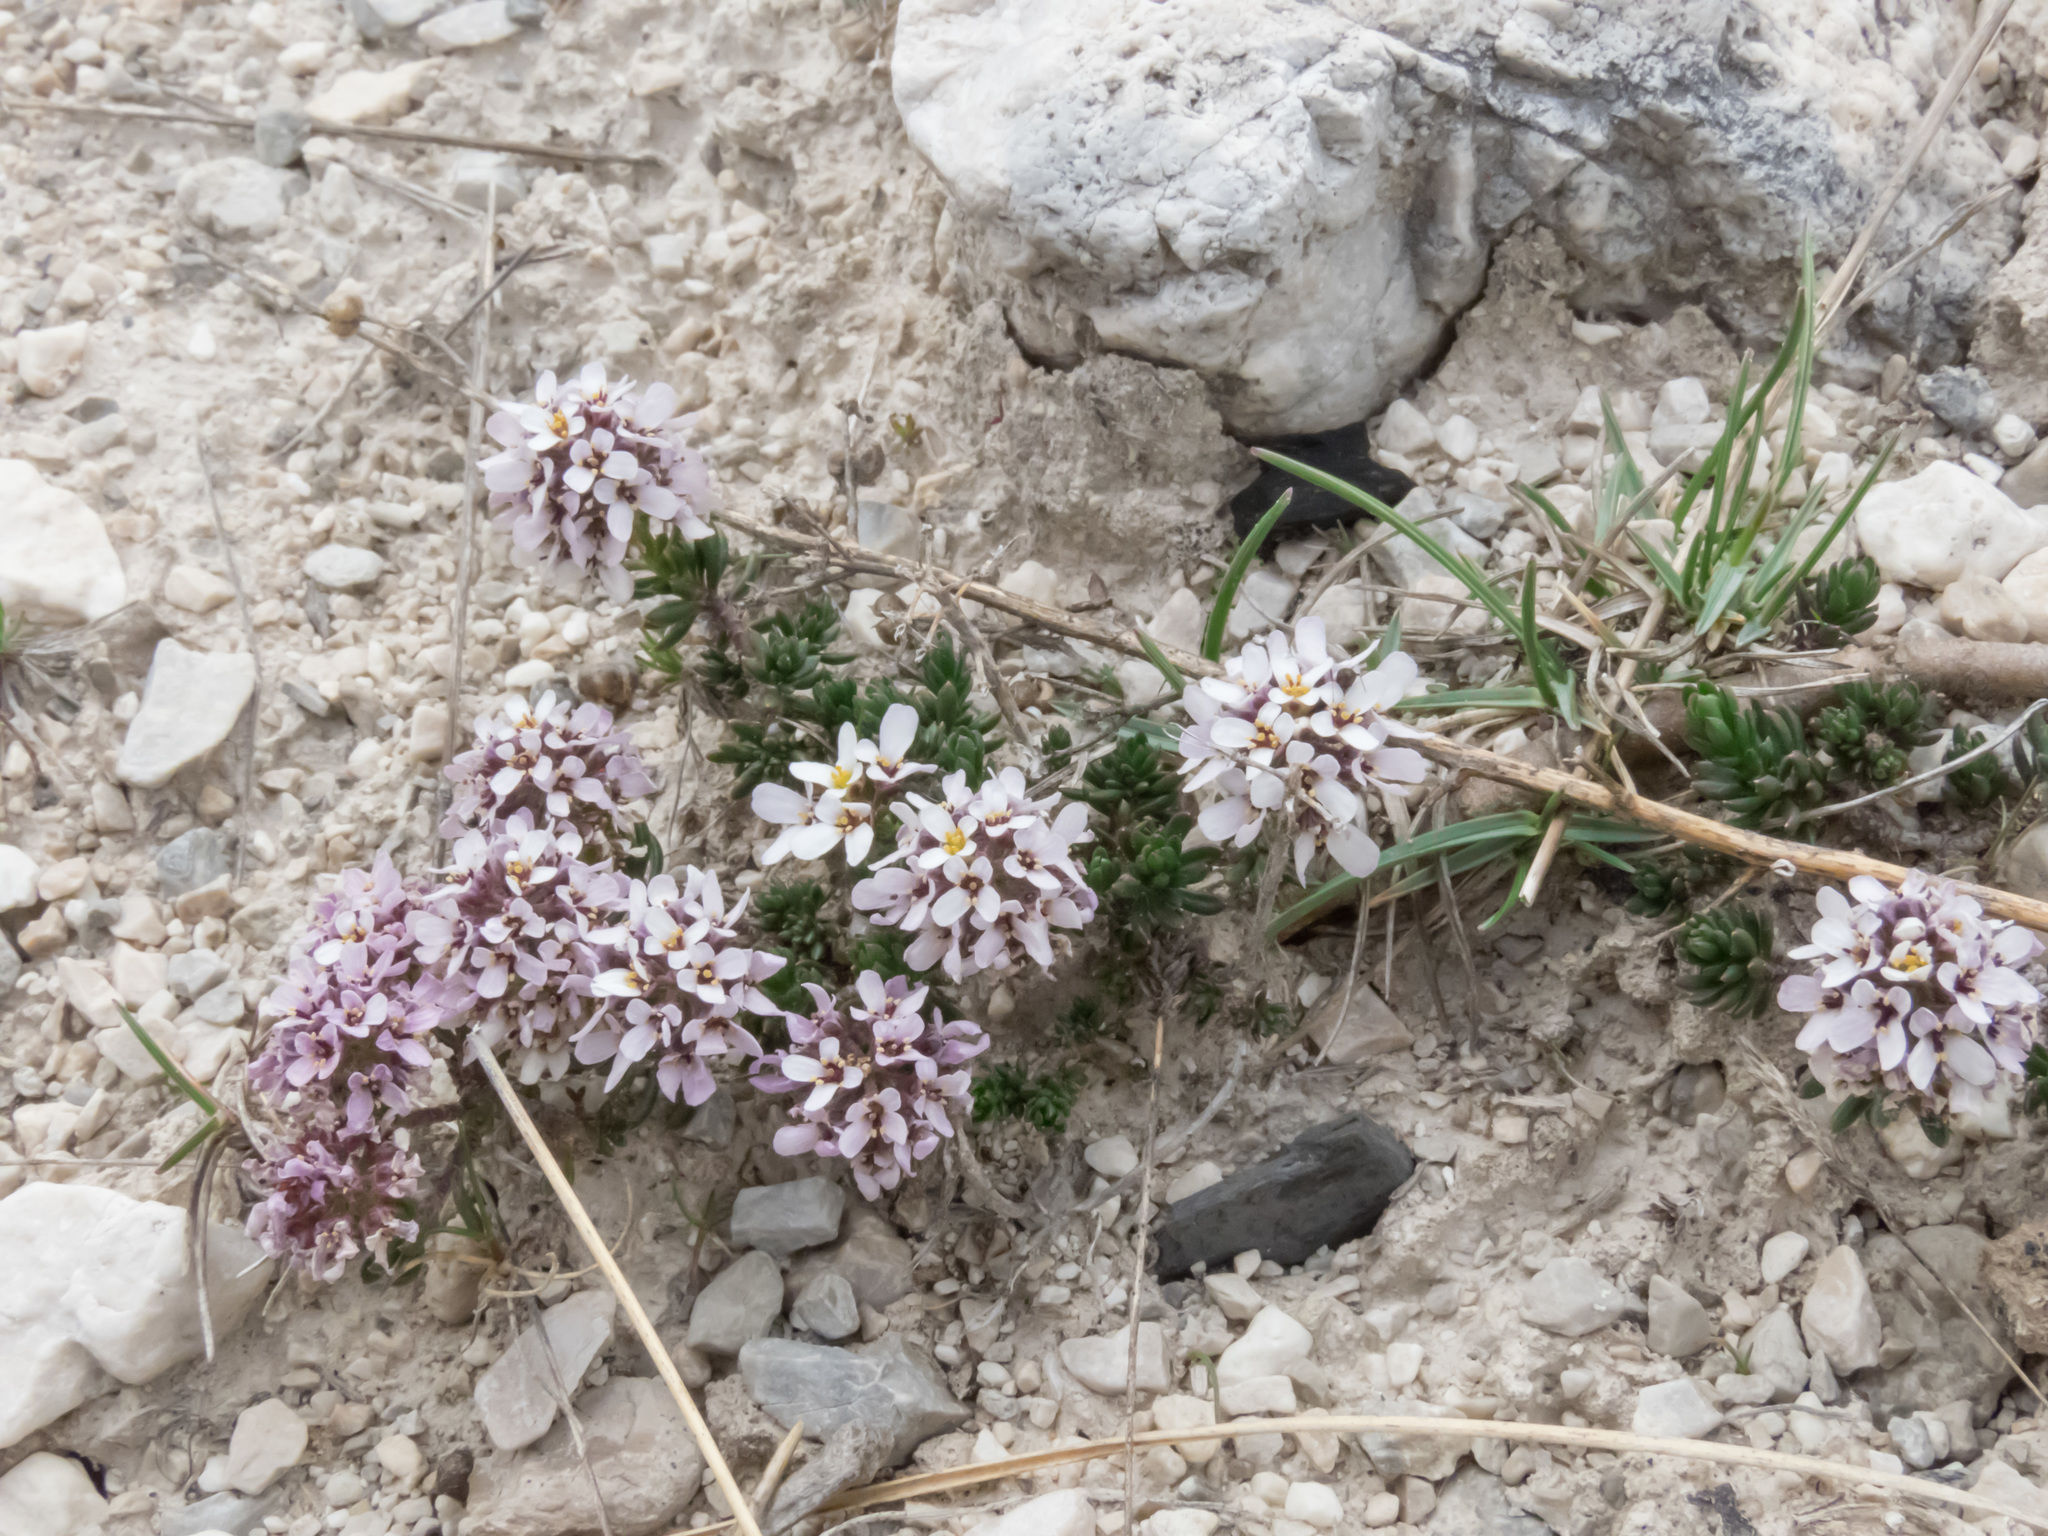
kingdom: Plantae
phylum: Tracheophyta
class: Magnoliopsida
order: Brassicales
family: Brassicaceae
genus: Iberis
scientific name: Iberis saxatilis
